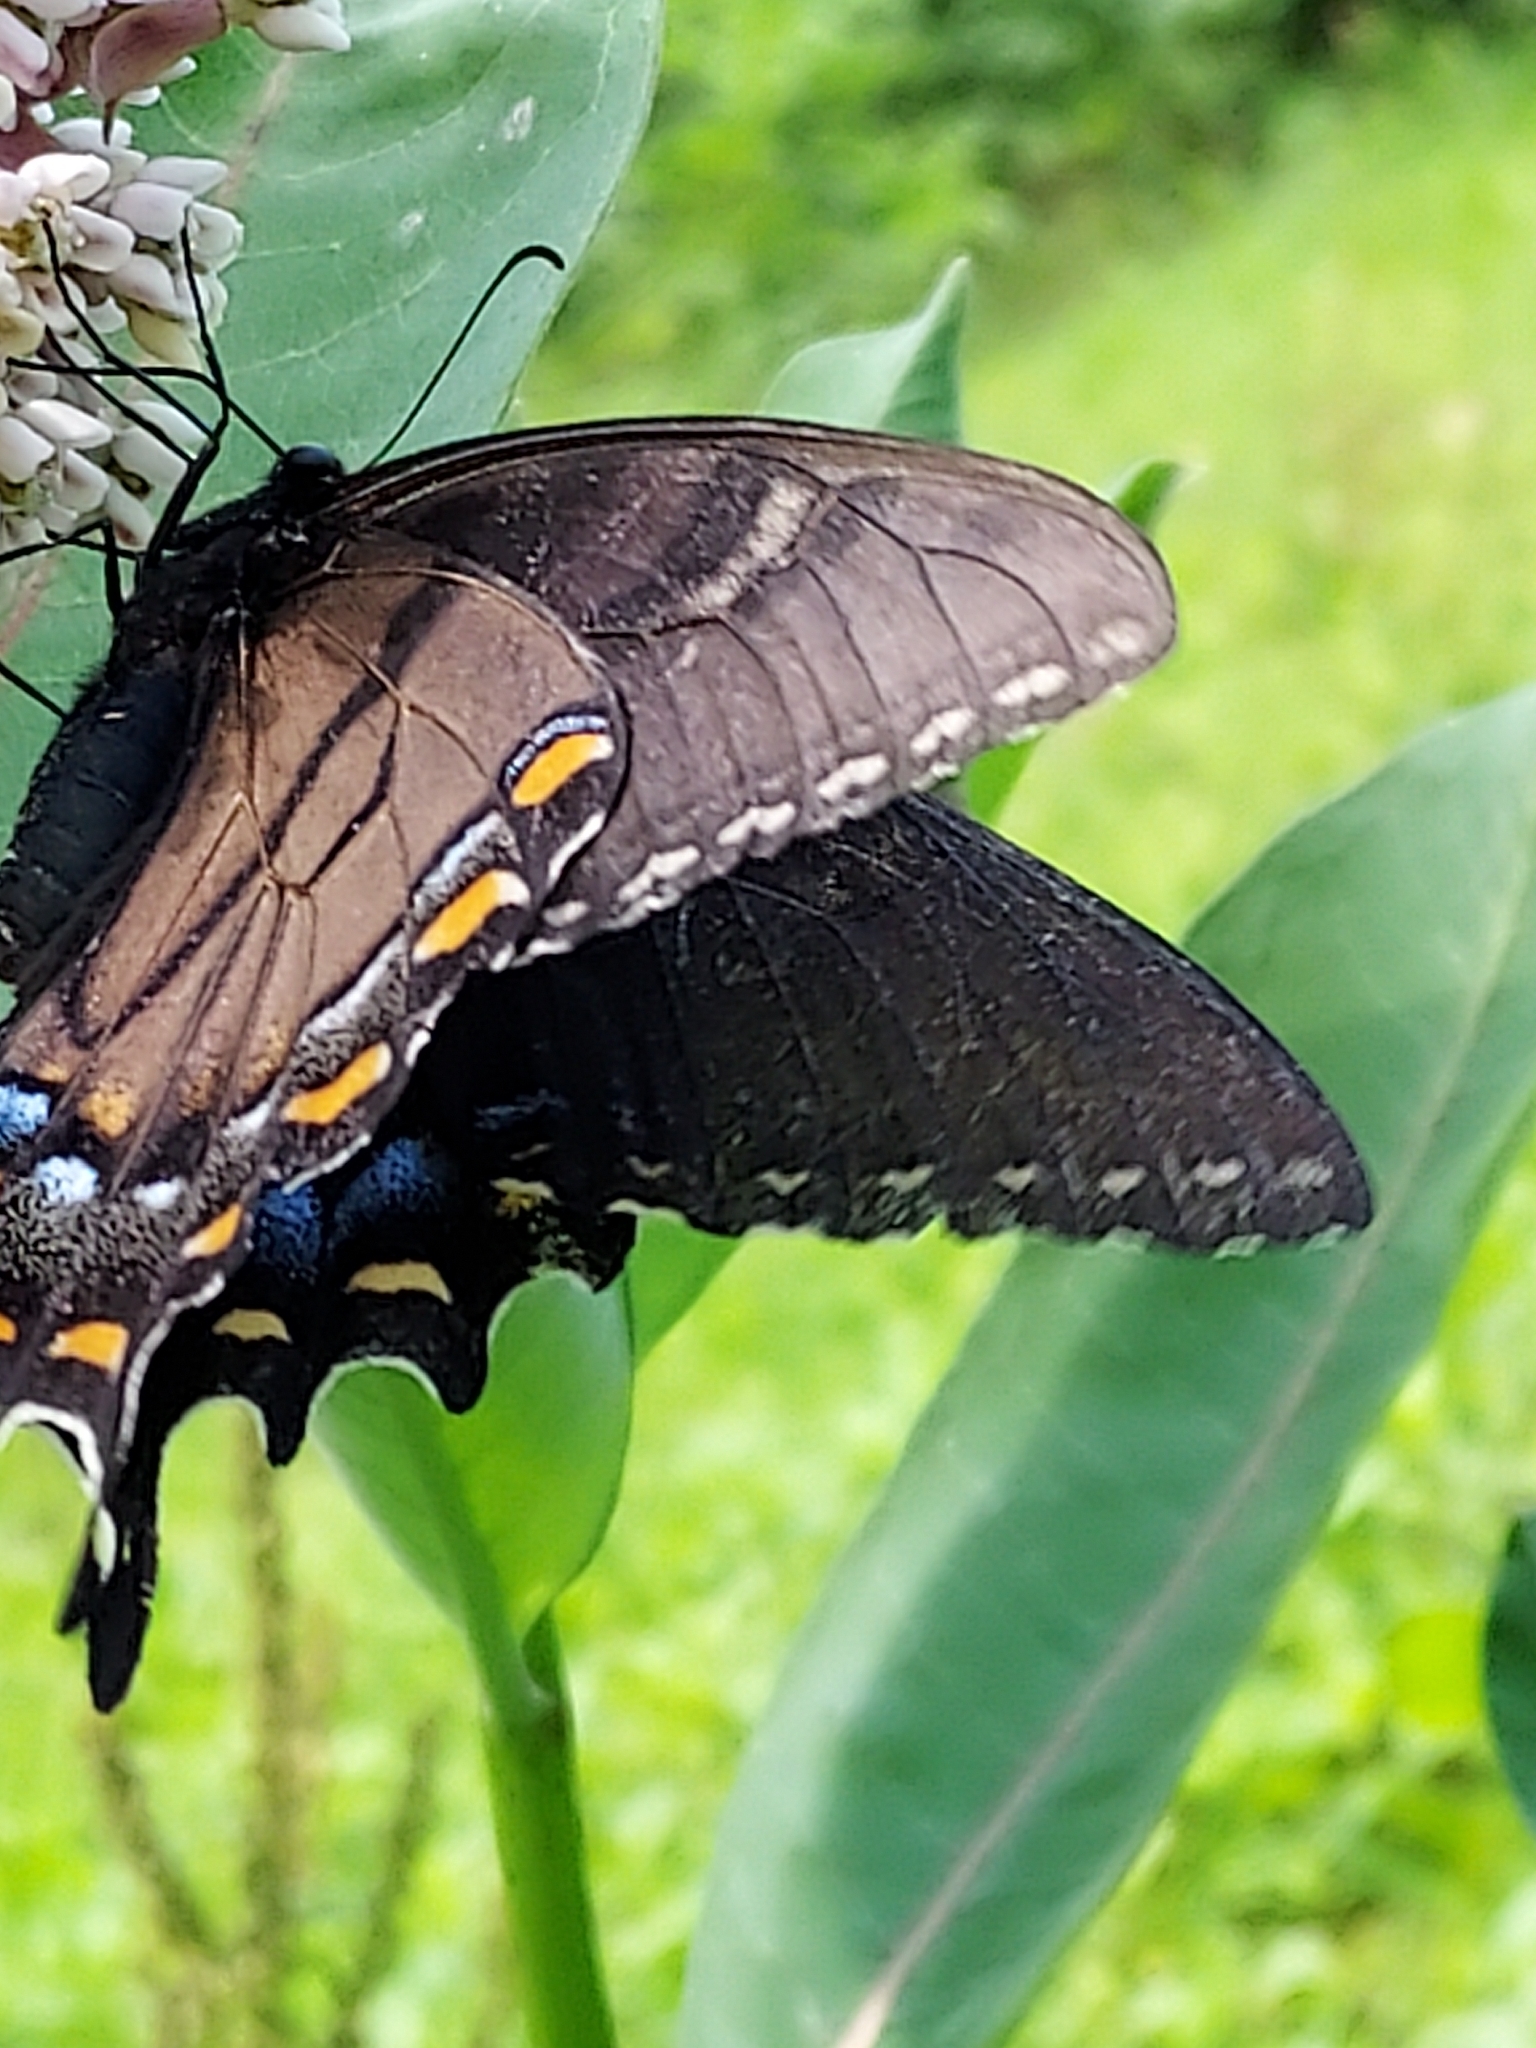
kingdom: Animalia
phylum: Arthropoda
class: Insecta
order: Lepidoptera
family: Papilionidae
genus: Papilio
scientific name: Papilio glaucus
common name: Tiger swallowtail
